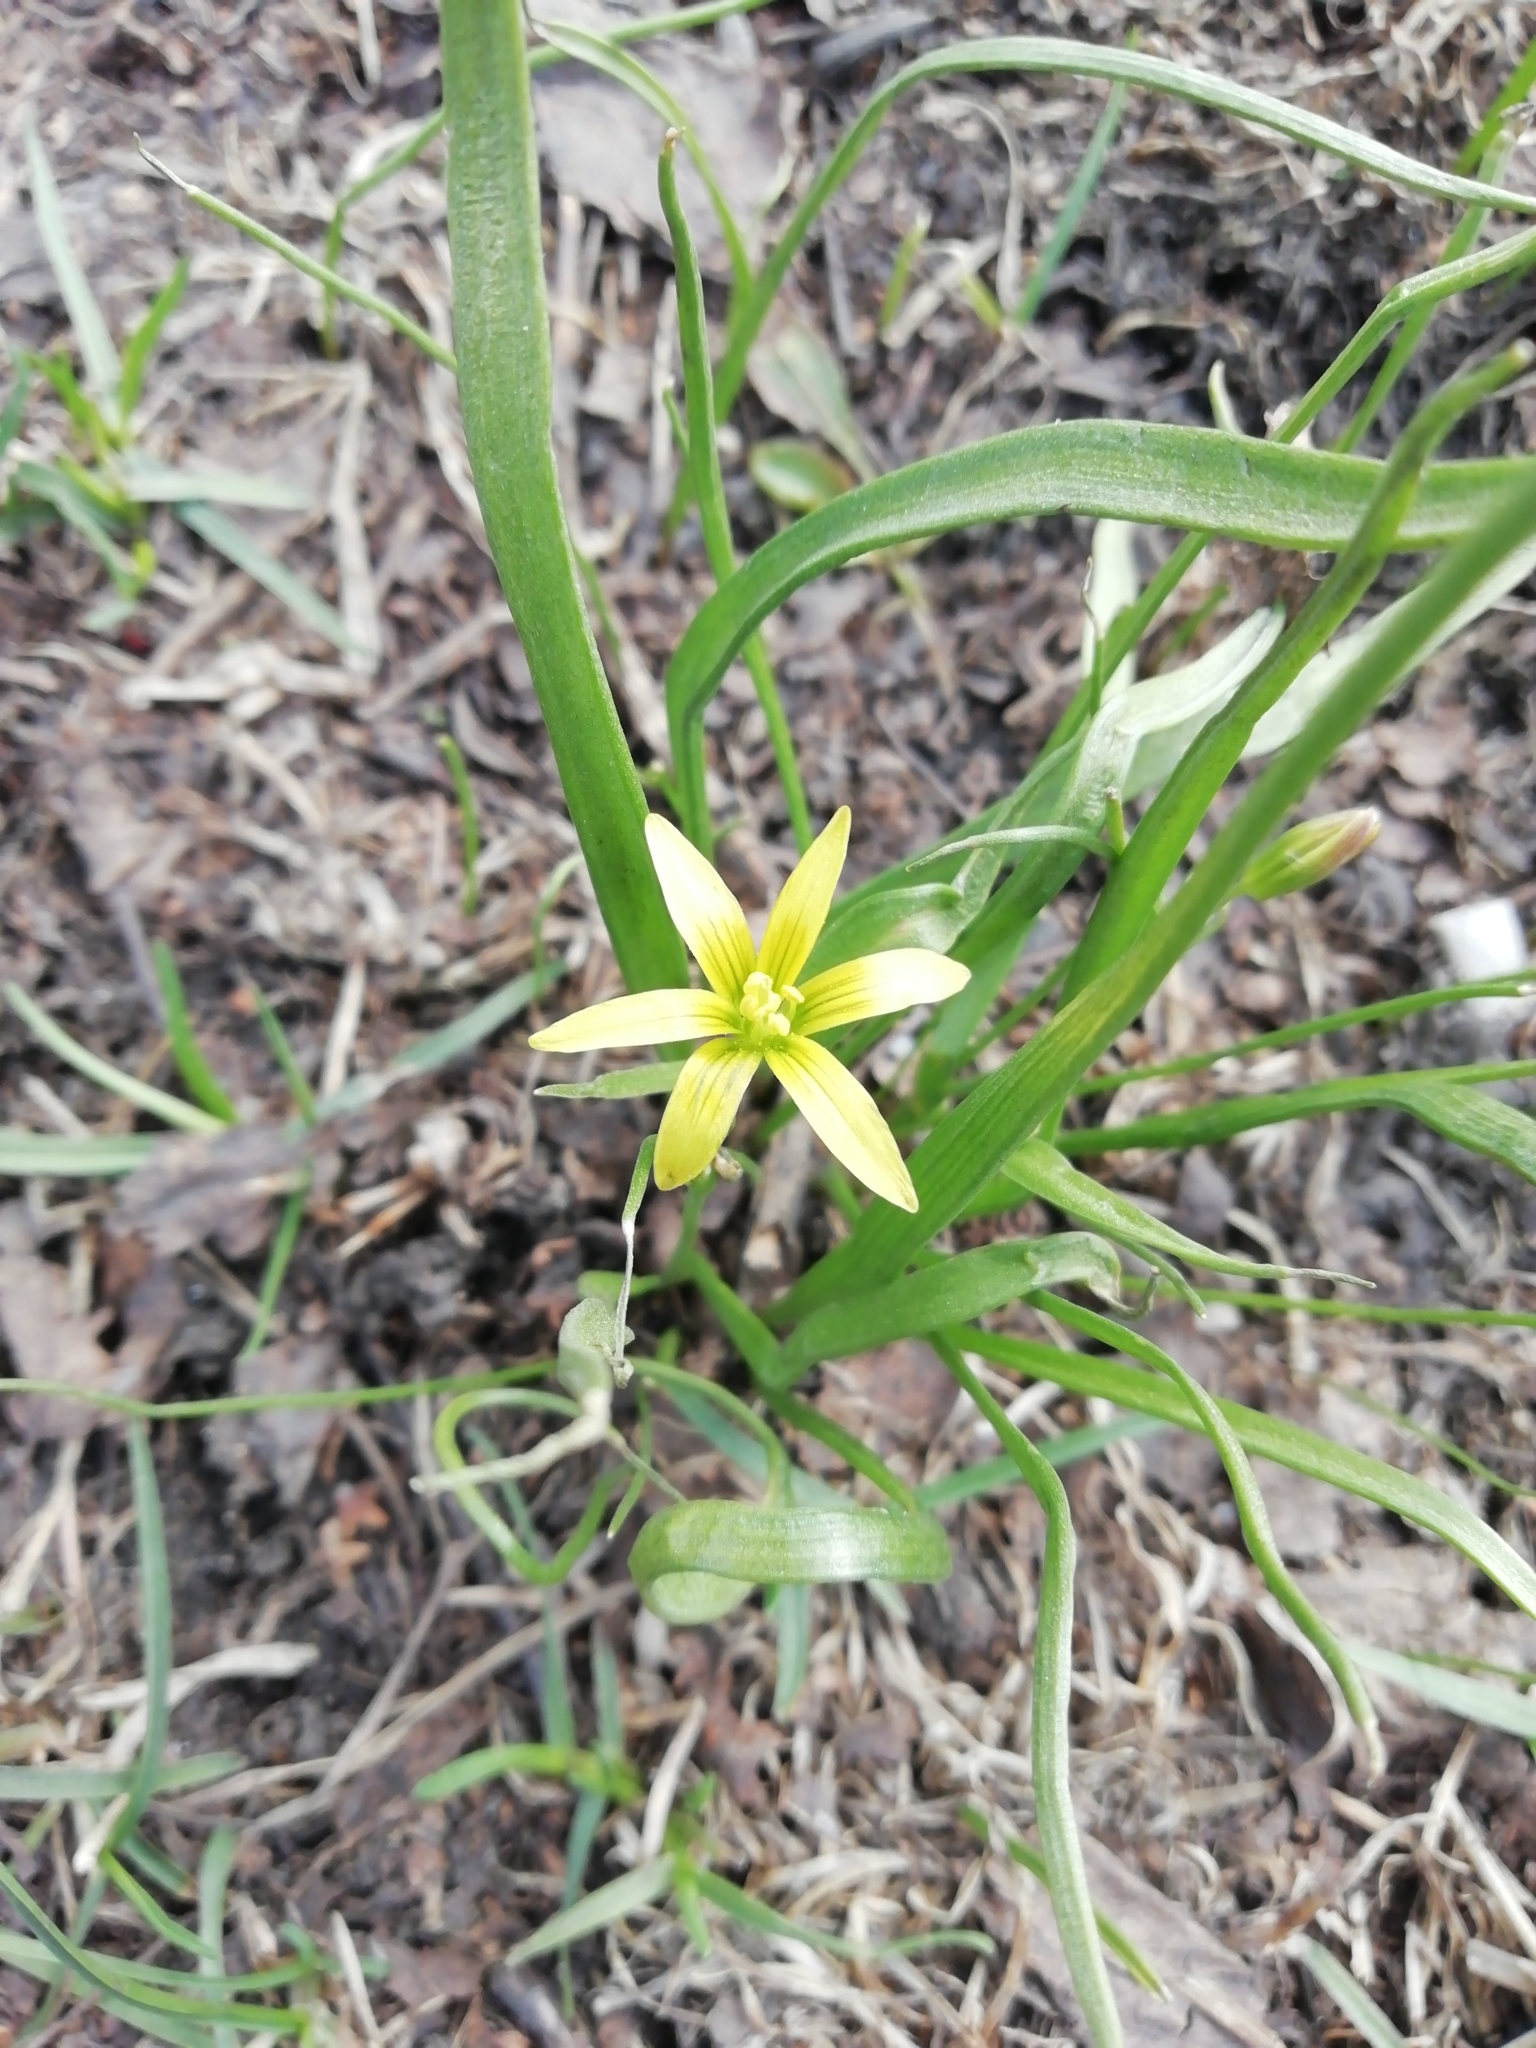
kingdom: Plantae
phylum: Tracheophyta
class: Liliopsida
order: Liliales
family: Liliaceae
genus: Gagea
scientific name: Gagea granulosa
